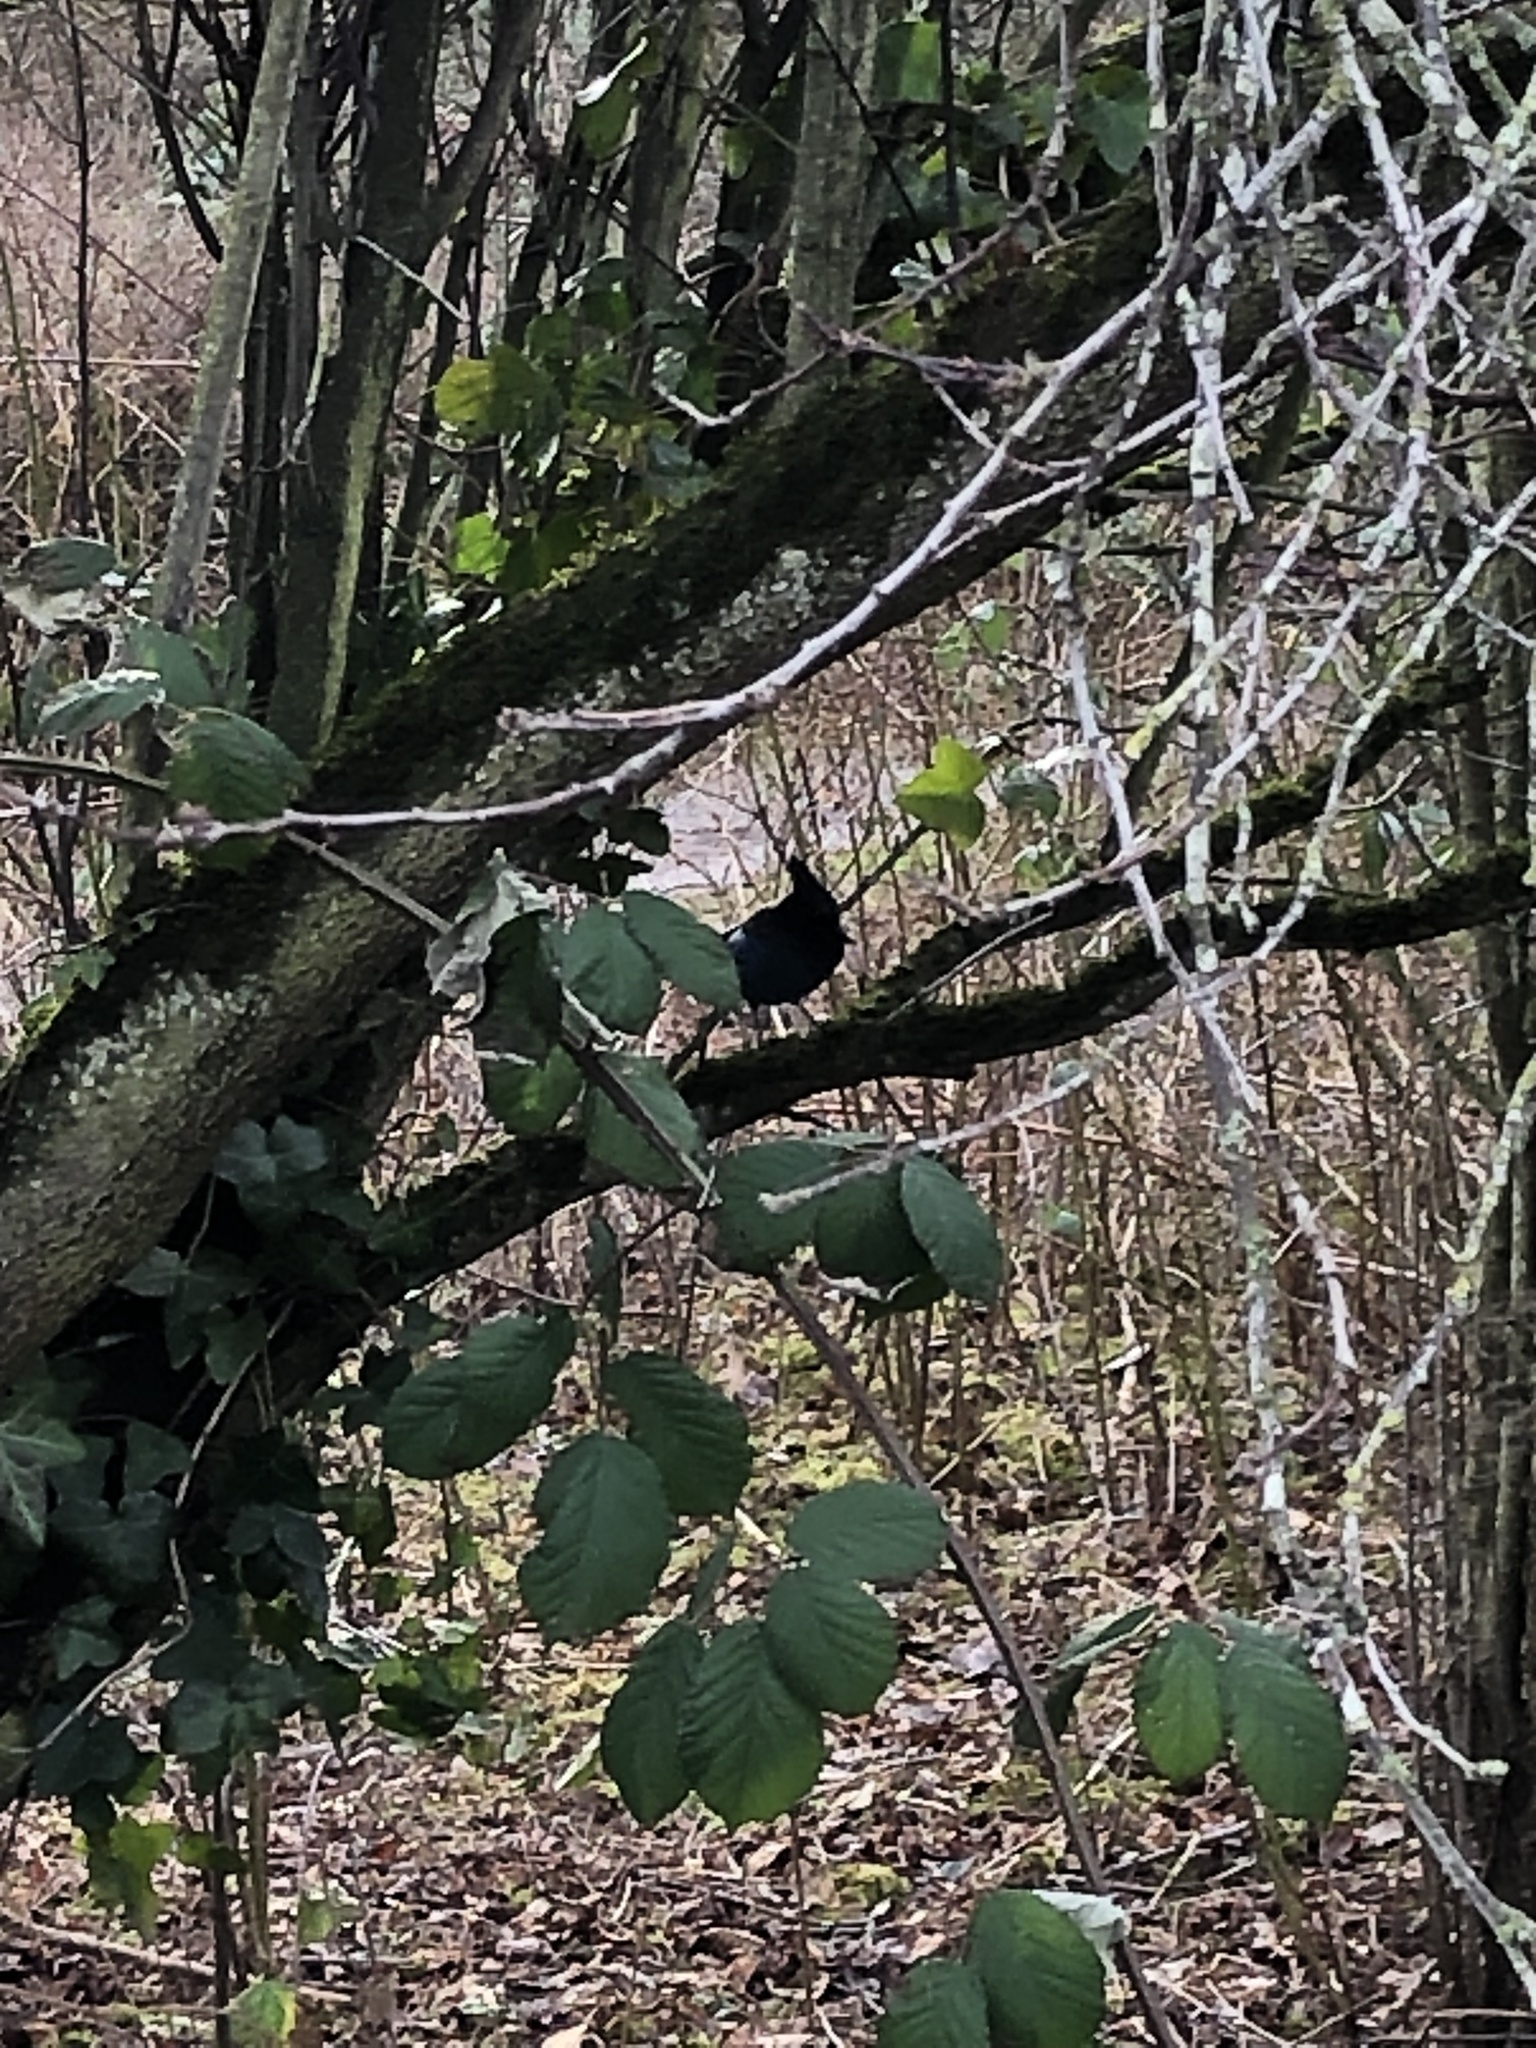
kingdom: Animalia
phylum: Chordata
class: Aves
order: Passeriformes
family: Corvidae
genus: Cyanocitta
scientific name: Cyanocitta stelleri
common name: Steller's jay
